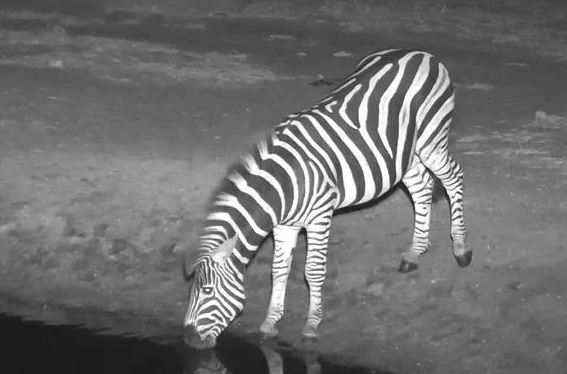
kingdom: Animalia
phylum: Chordata
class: Mammalia
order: Perissodactyla
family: Equidae
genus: Equus
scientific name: Equus quagga
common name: Plains zebra
